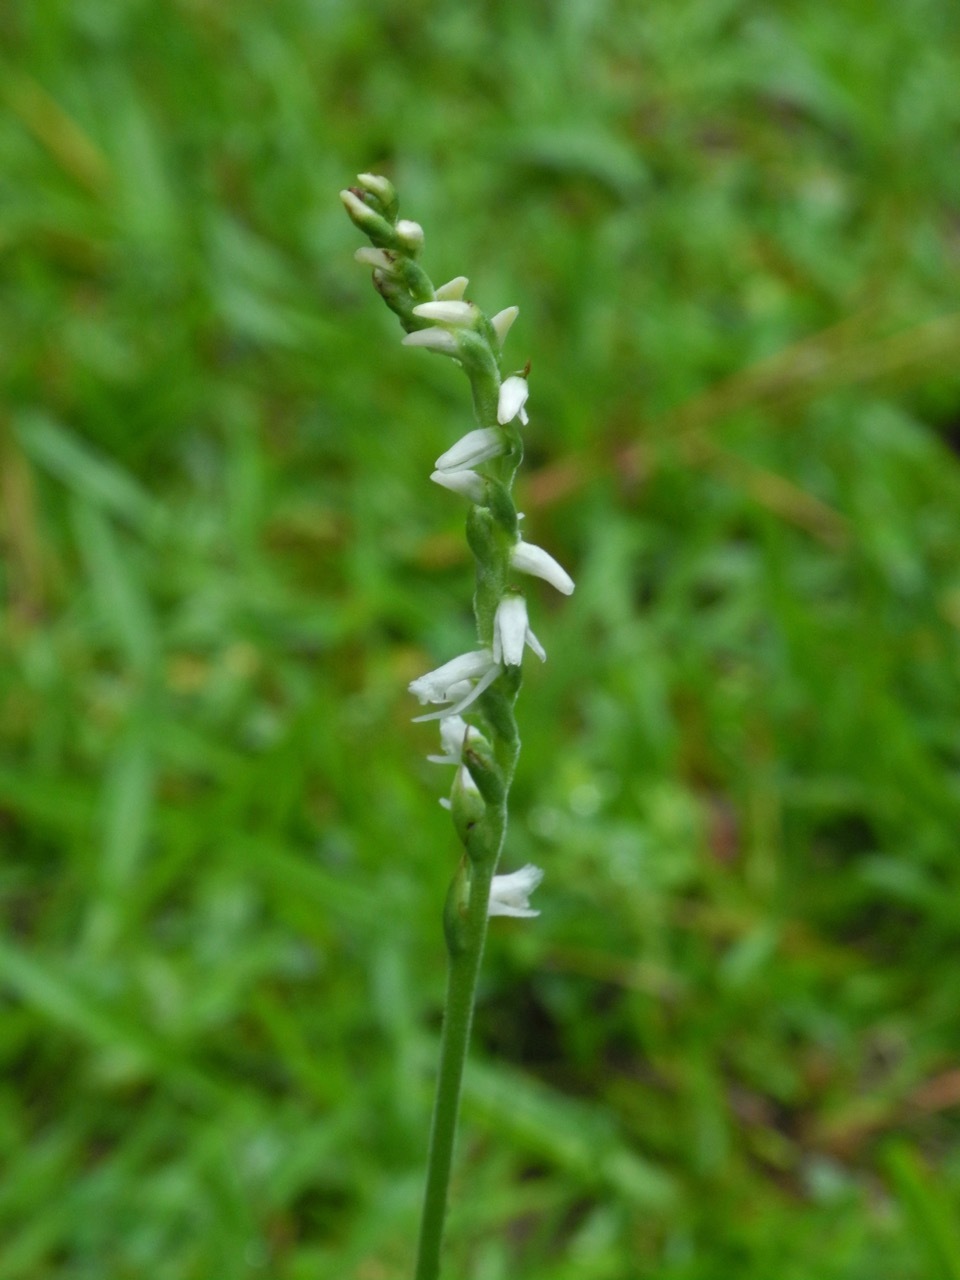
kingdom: Plantae
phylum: Tracheophyta
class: Liliopsida
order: Asparagales
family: Orchidaceae
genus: Spiranthes
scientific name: Spiranthes vernalis
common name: Spring ladies'-tresses
